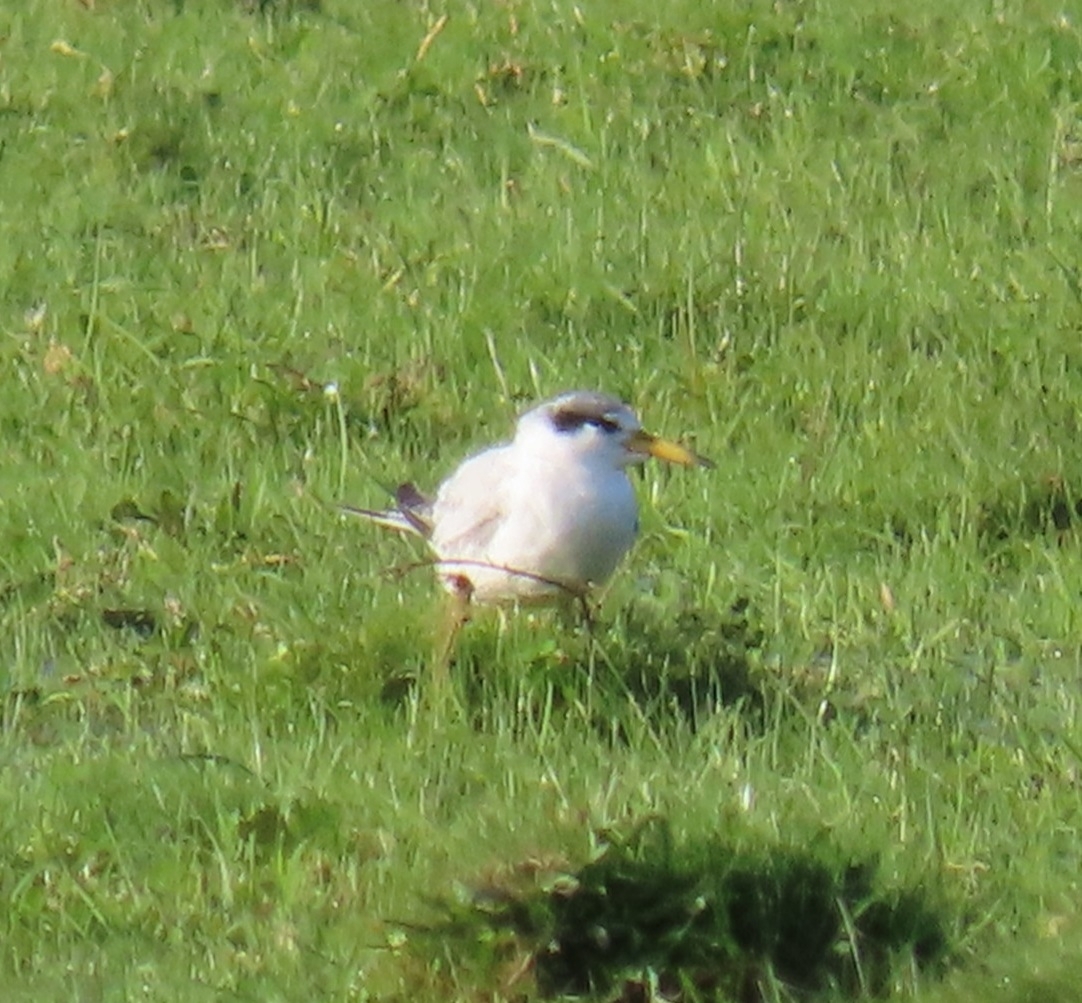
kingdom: Animalia
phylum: Chordata
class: Aves
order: Charadriiformes
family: Laridae
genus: Sternula
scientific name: Sternula superciliaris
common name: Yellow-billed tern
